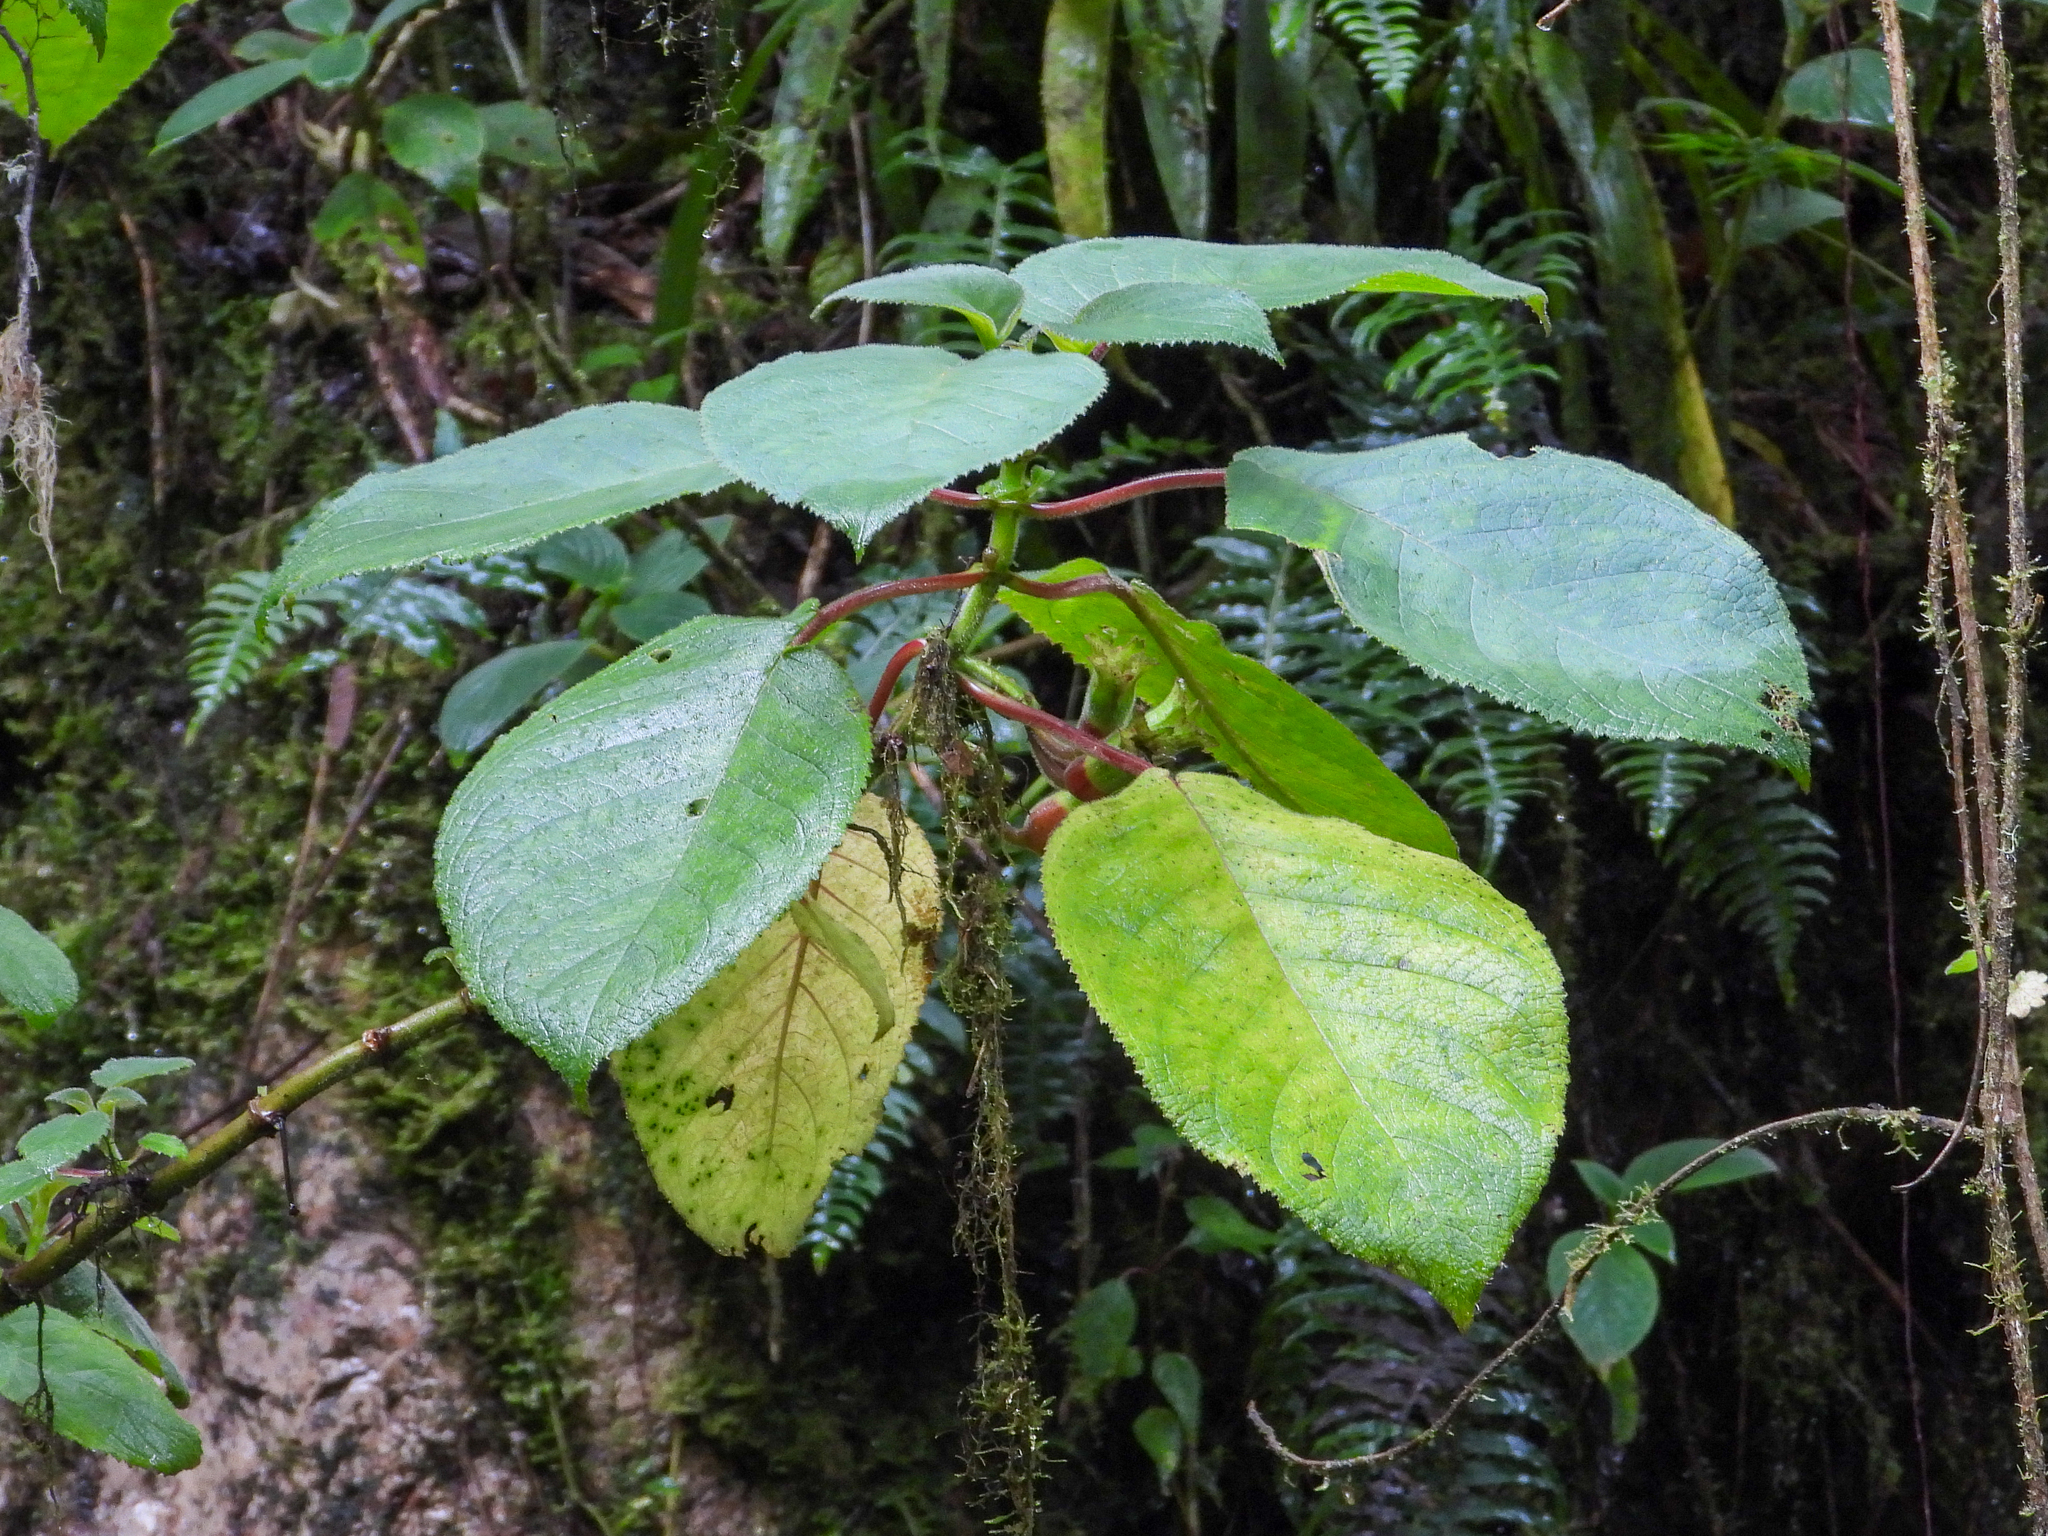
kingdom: Plantae
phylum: Tracheophyta
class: Magnoliopsida
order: Lamiales
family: Gesneriaceae
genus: Solenophora
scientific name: Solenophora calycosa
